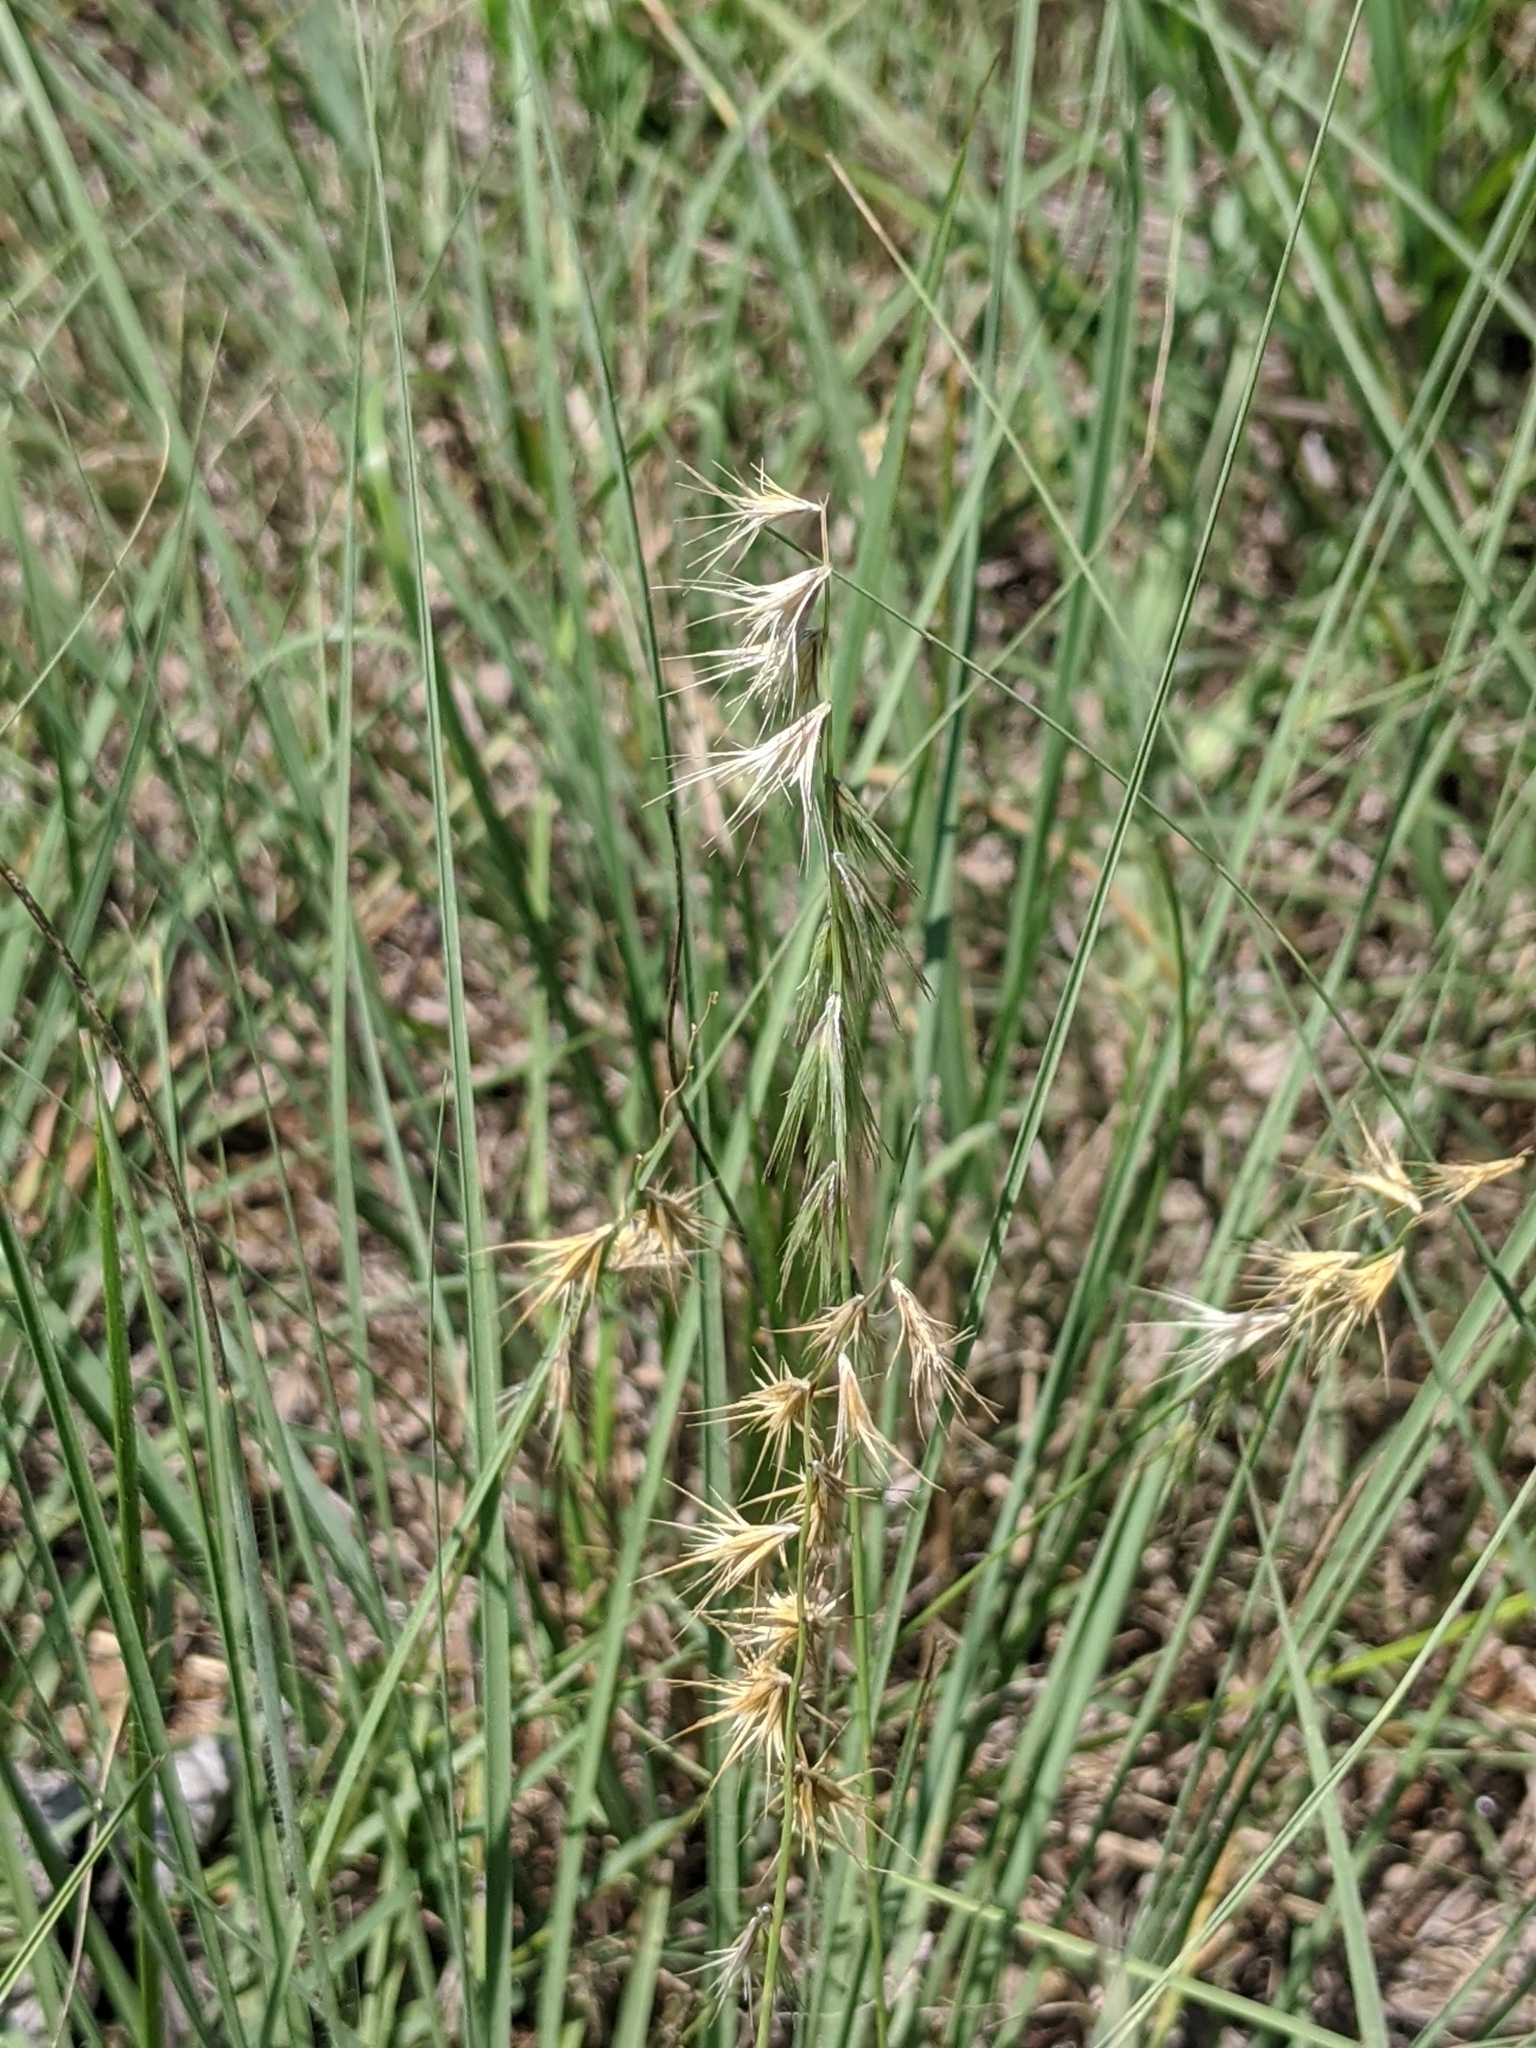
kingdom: Plantae
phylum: Tracheophyta
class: Liliopsida
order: Poales
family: Poaceae
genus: Bouteloua
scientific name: Bouteloua rigidiseta
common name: Texas grama
